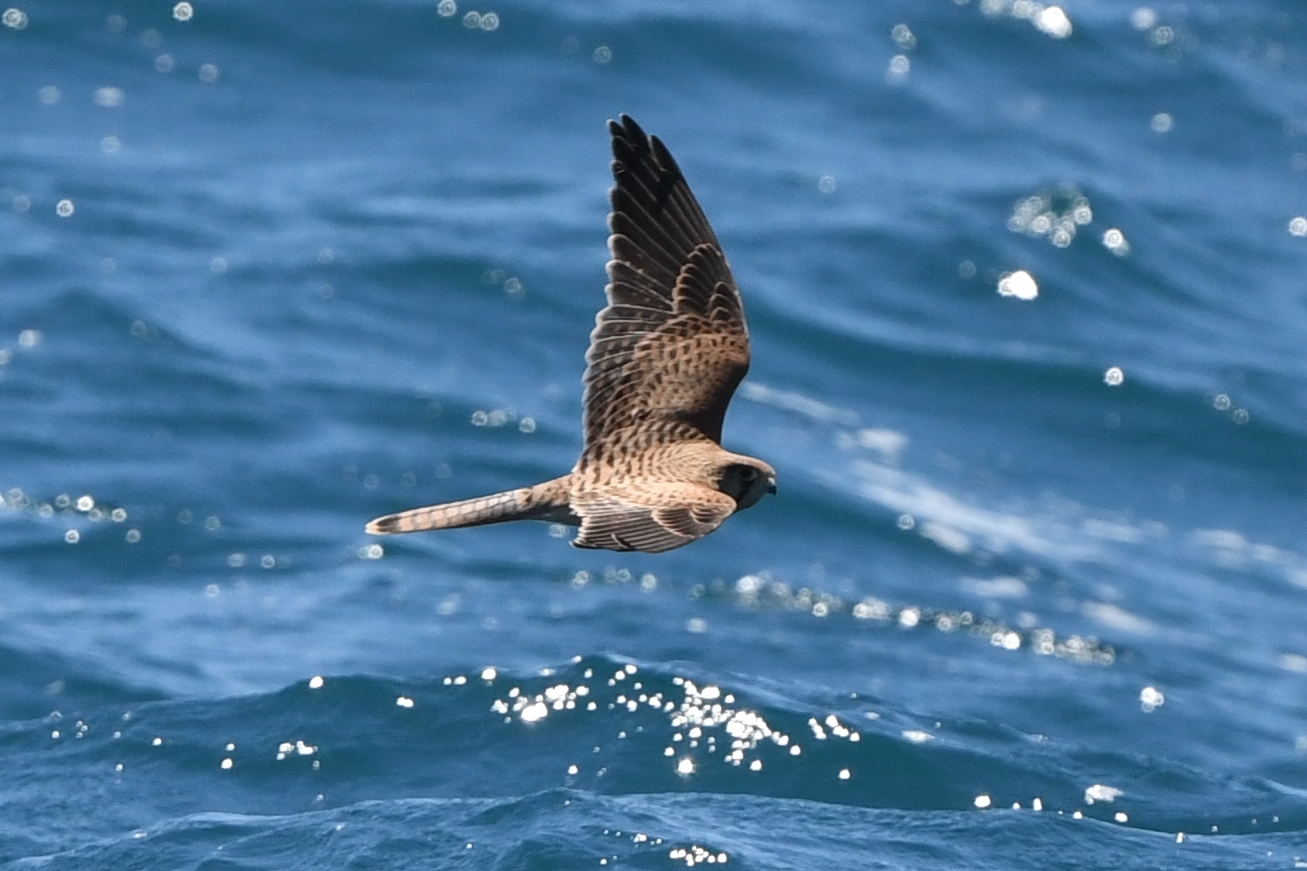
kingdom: Animalia
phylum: Chordata
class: Aves
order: Falconiformes
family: Falconidae
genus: Falco
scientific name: Falco tinnunculus
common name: Common kestrel
